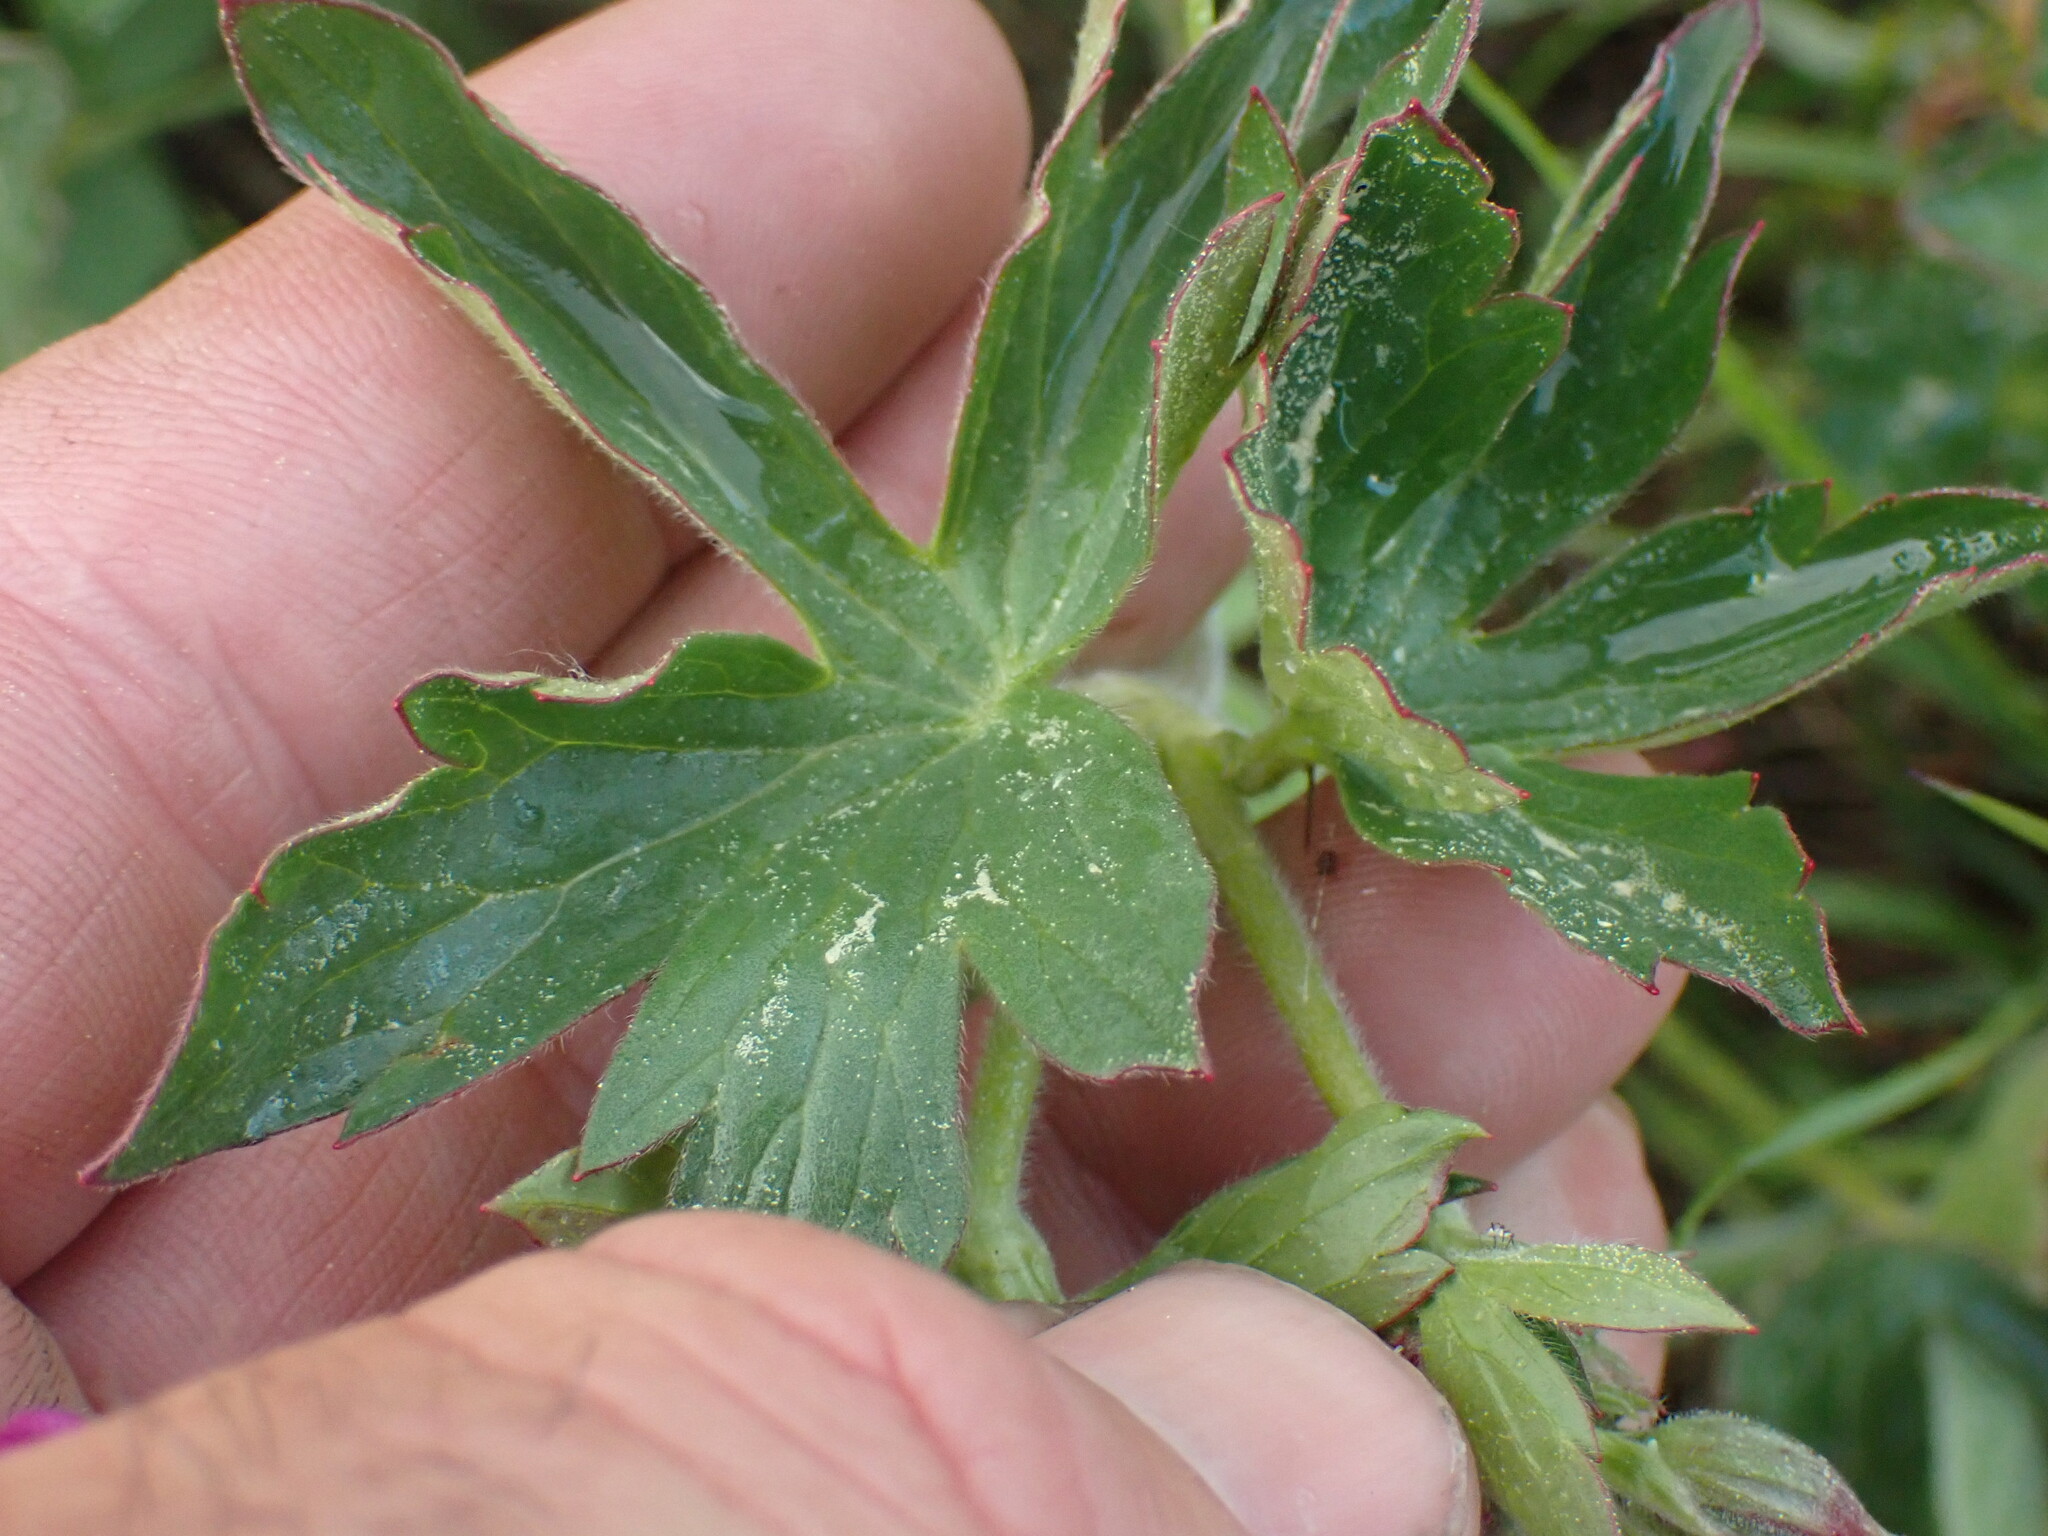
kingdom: Plantae
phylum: Tracheophyta
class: Magnoliopsida
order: Geraniales
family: Geraniaceae
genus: Geranium
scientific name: Geranium viscosissimum
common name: Purple geranium
